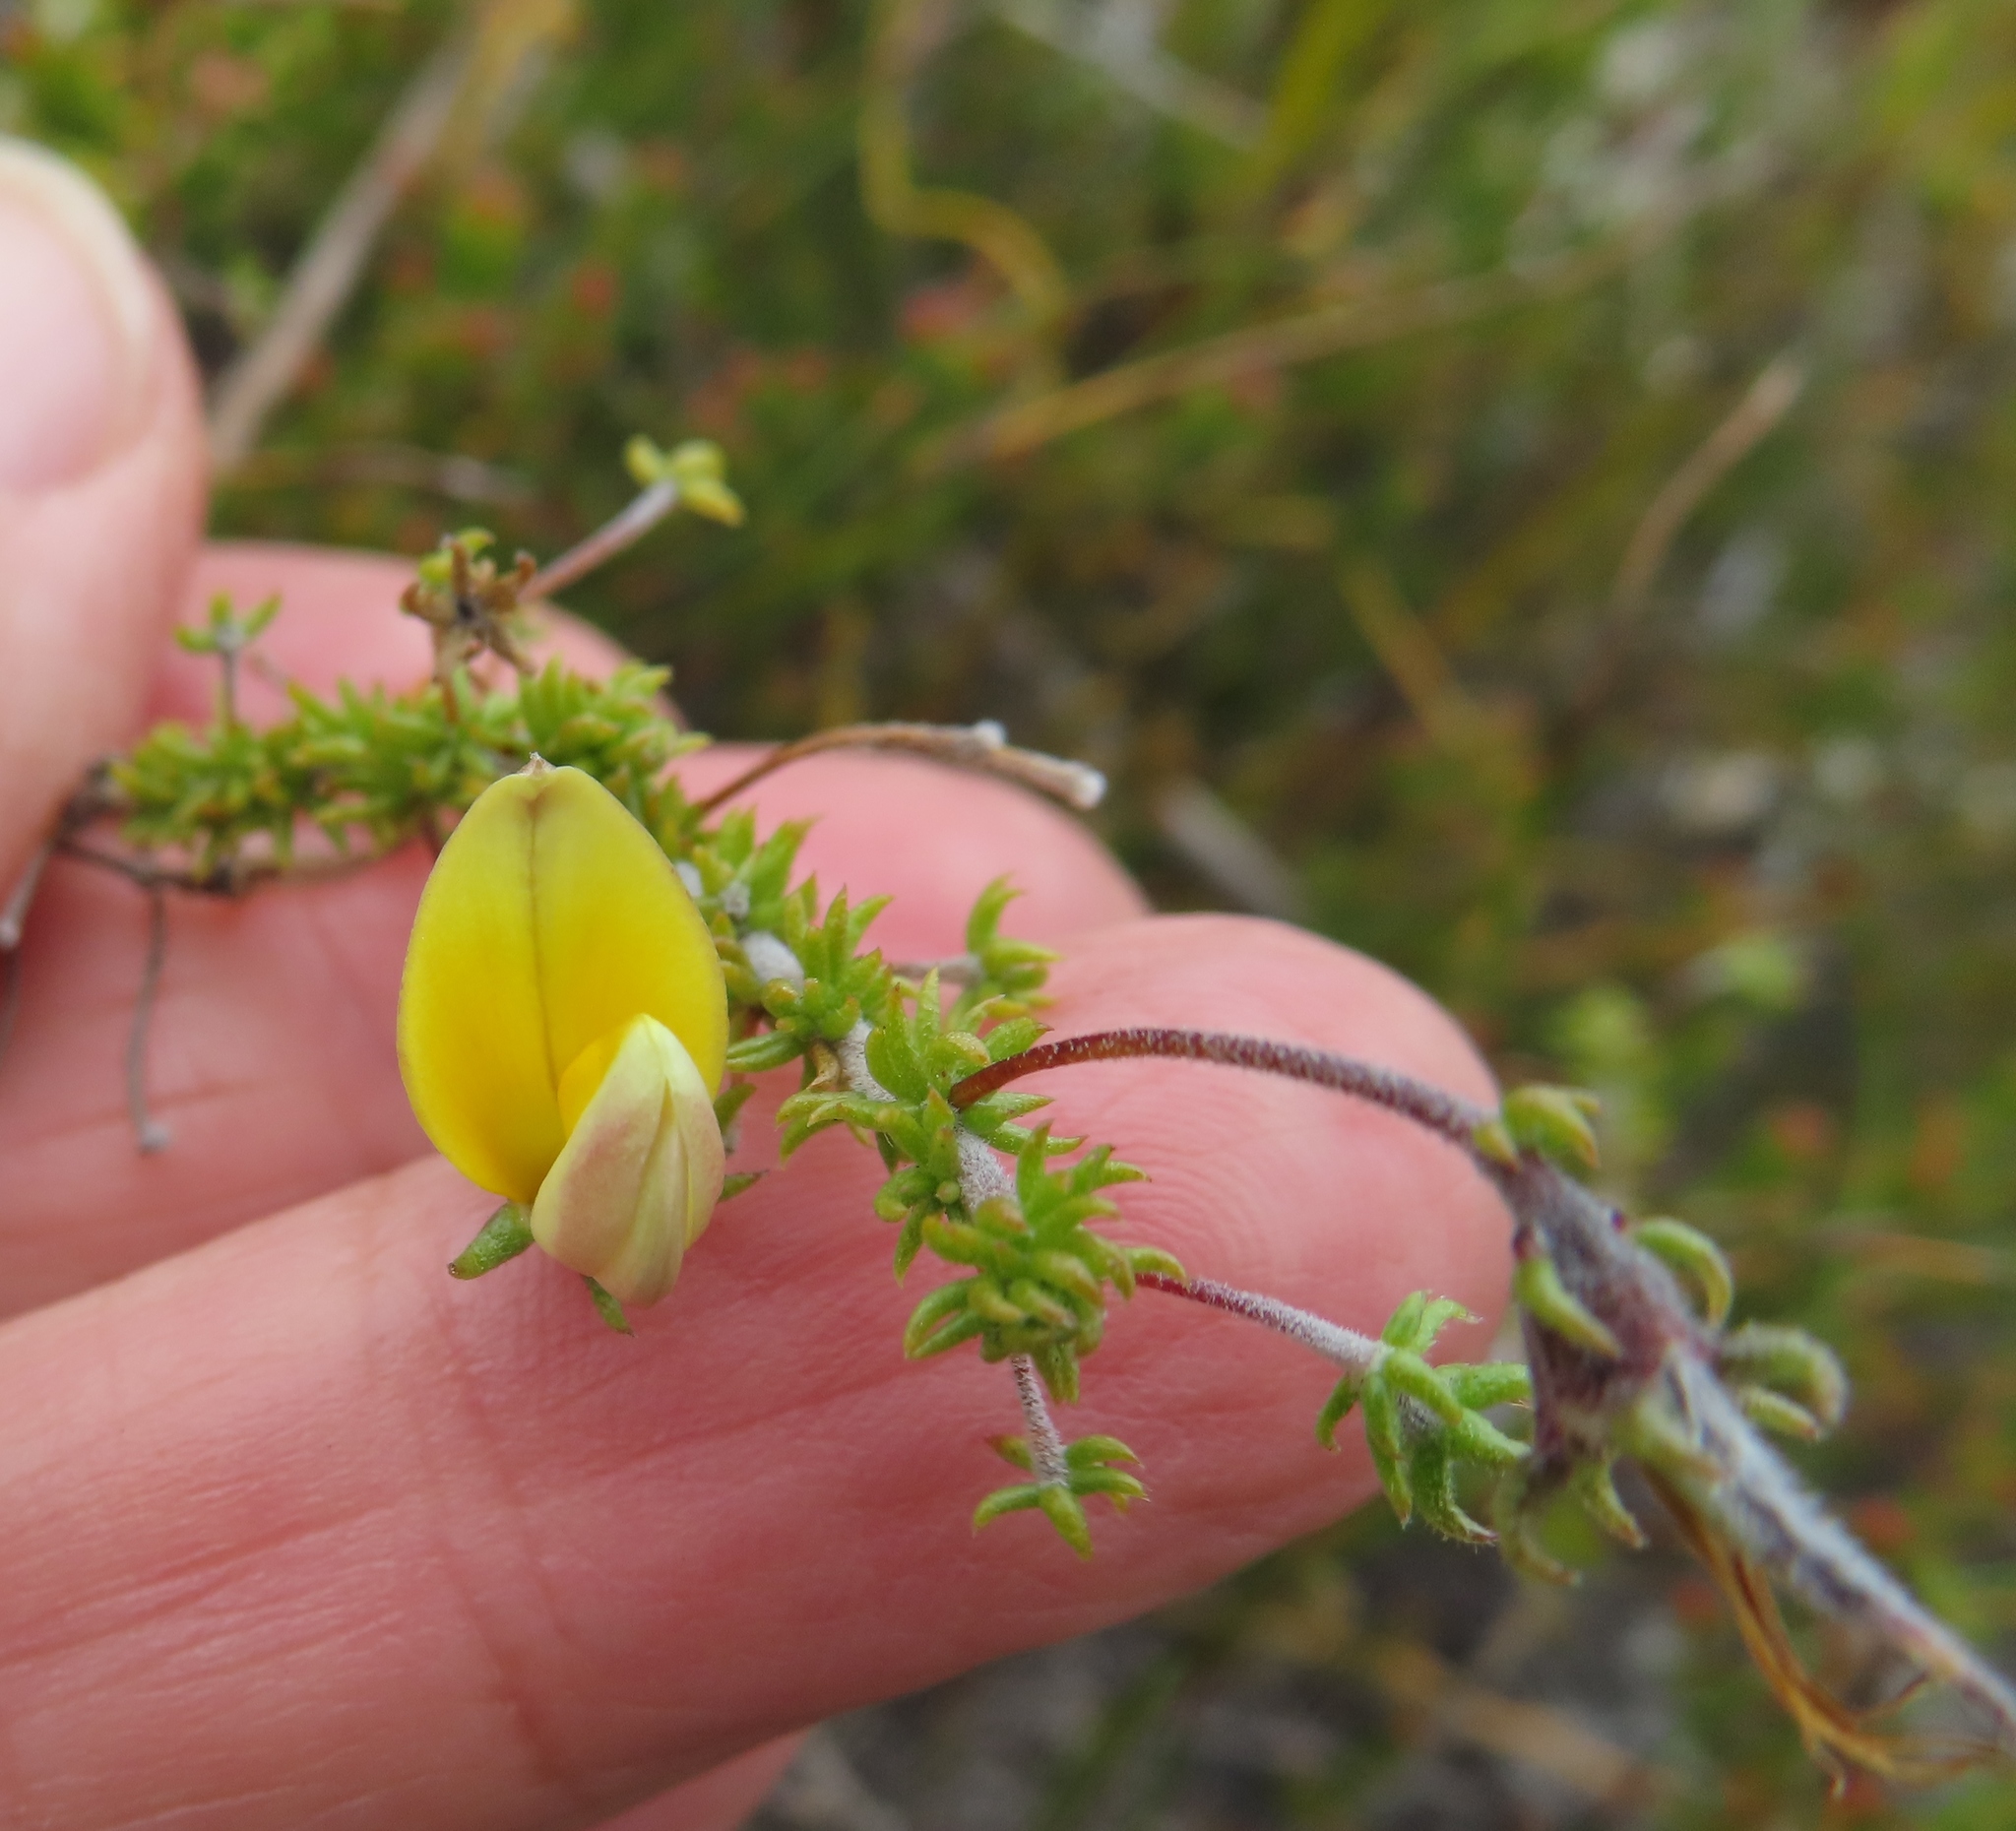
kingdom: Plantae
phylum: Tracheophyta
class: Magnoliopsida
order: Fabales
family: Fabaceae
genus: Aspalathus
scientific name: Aspalathus retroflexa
